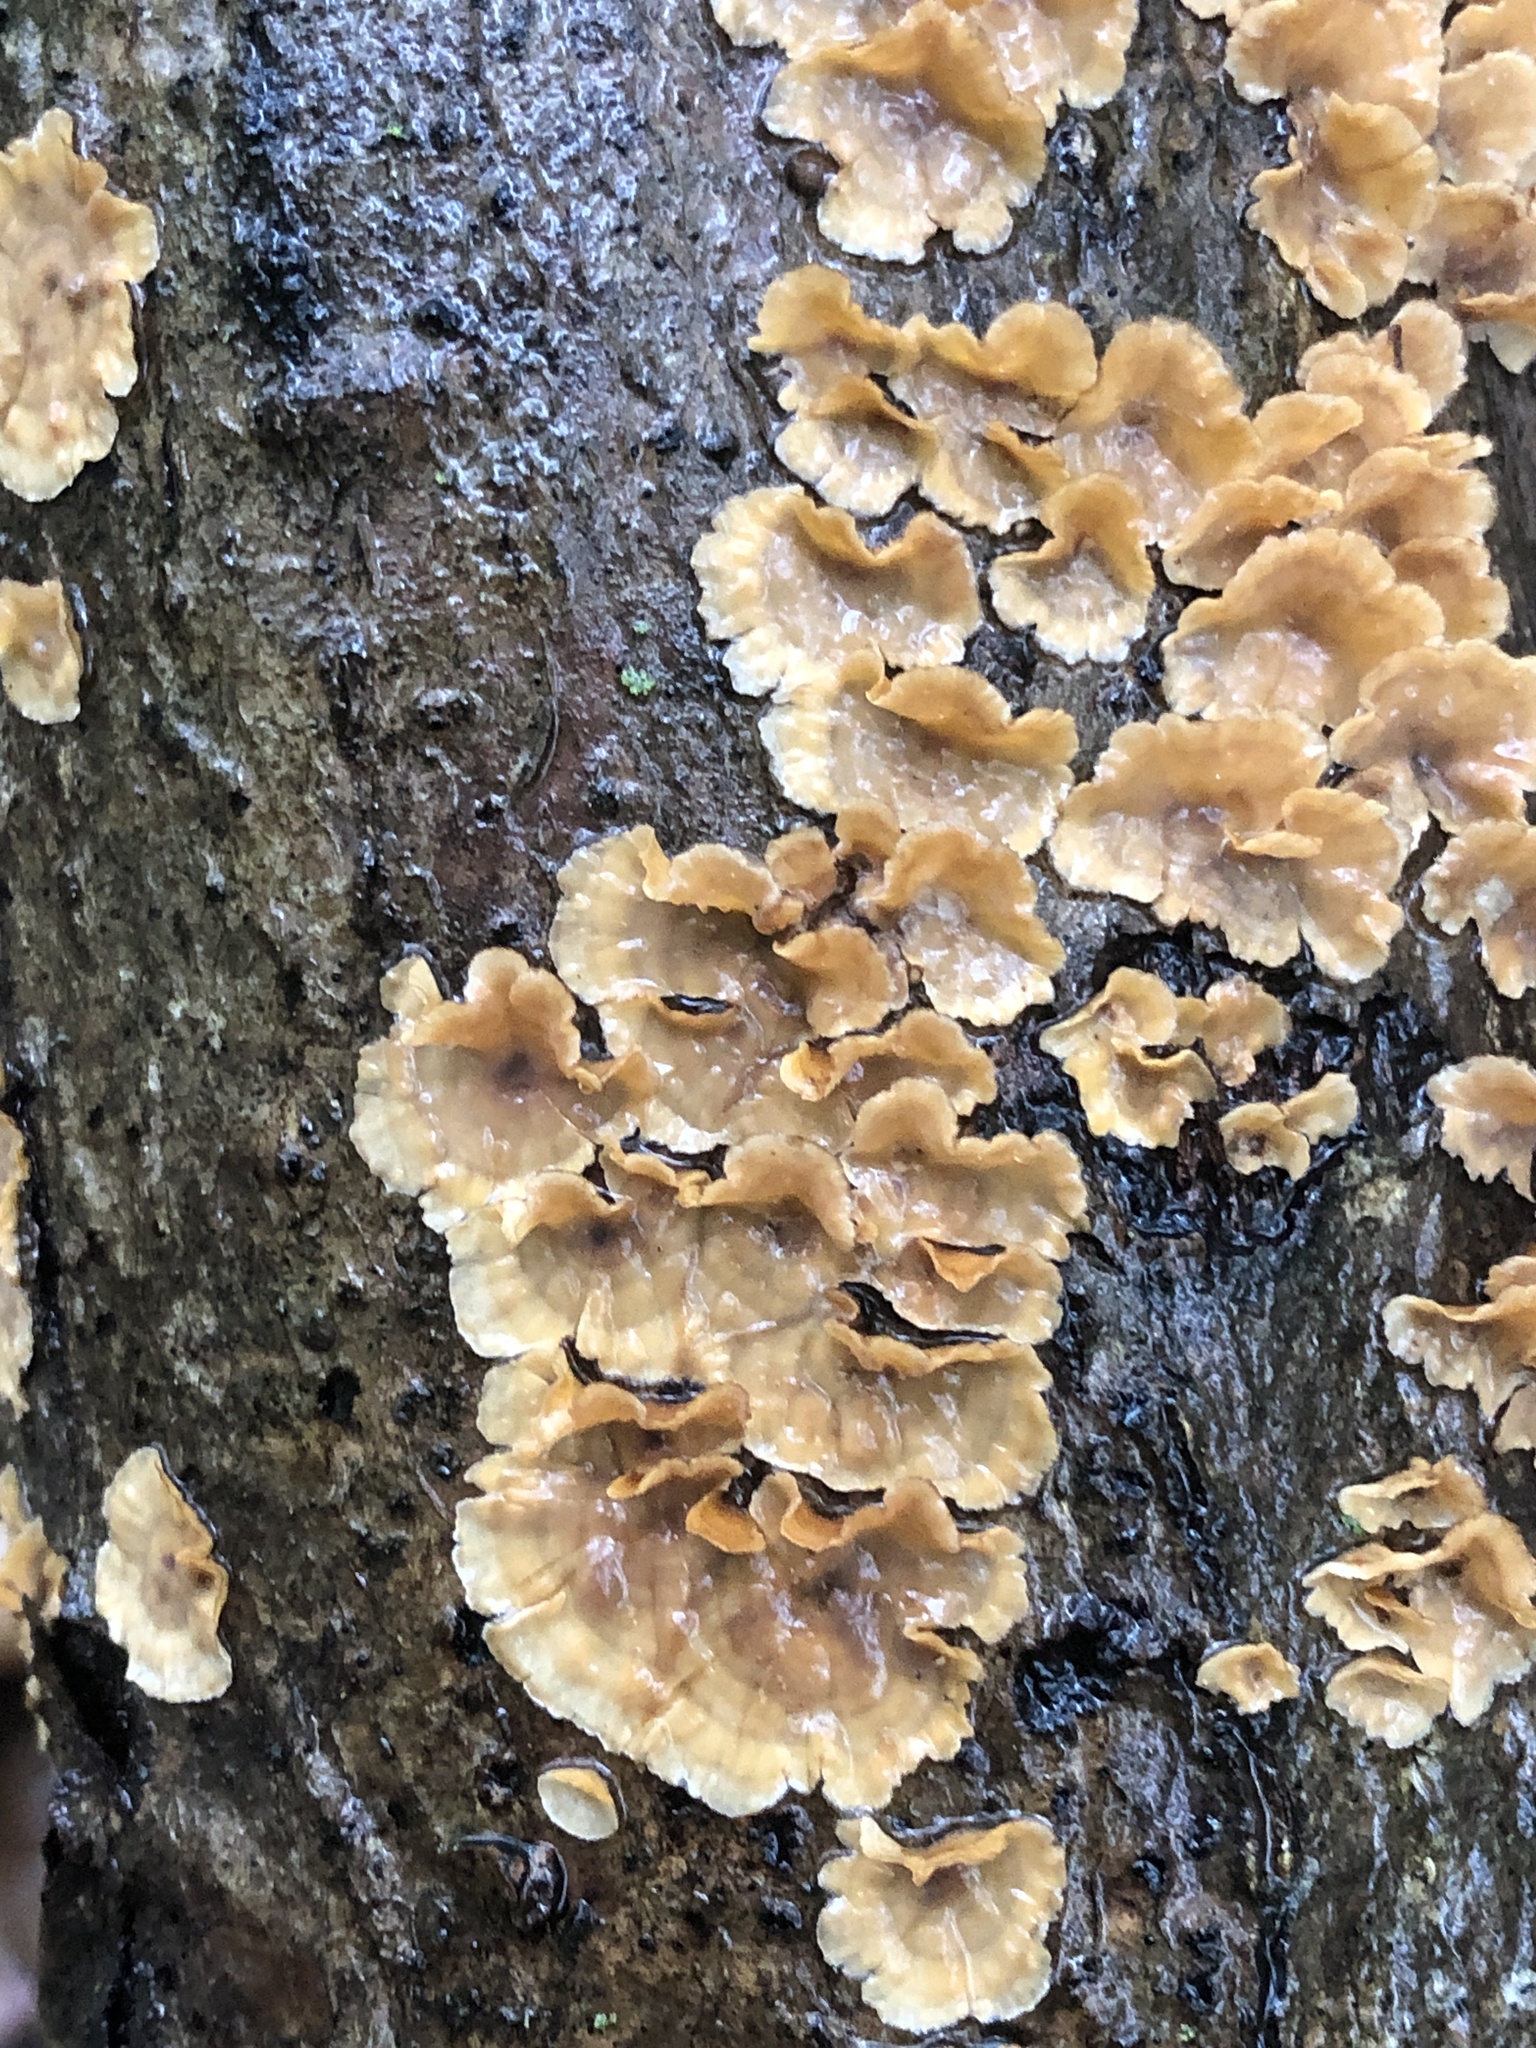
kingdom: Fungi
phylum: Basidiomycota
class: Agaricomycetes
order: Russulales
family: Stereaceae
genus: Stereum
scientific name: Stereum complicatum
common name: Crowded parchment
